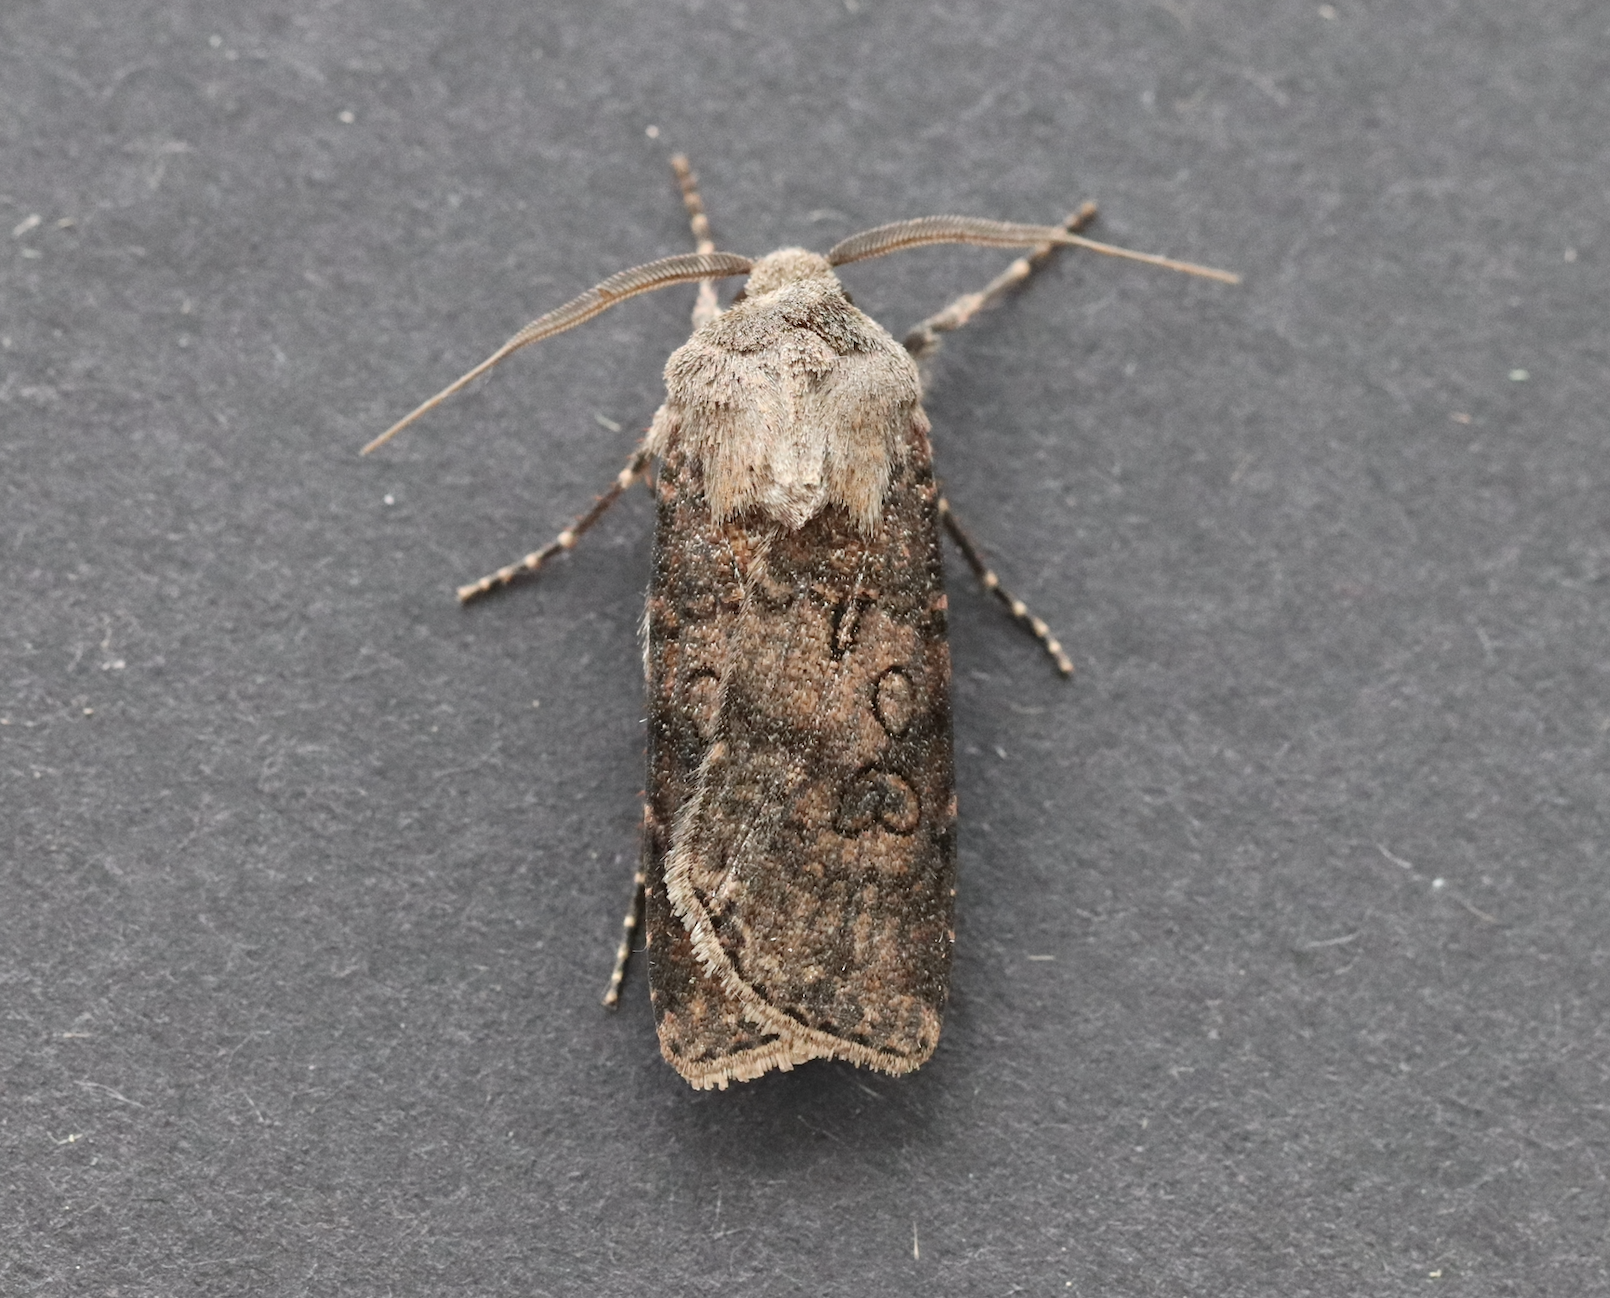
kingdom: Animalia
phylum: Arthropoda
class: Insecta
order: Lepidoptera
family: Noctuidae
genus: Agrotis
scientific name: Agrotis segetum
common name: Turnip moth
